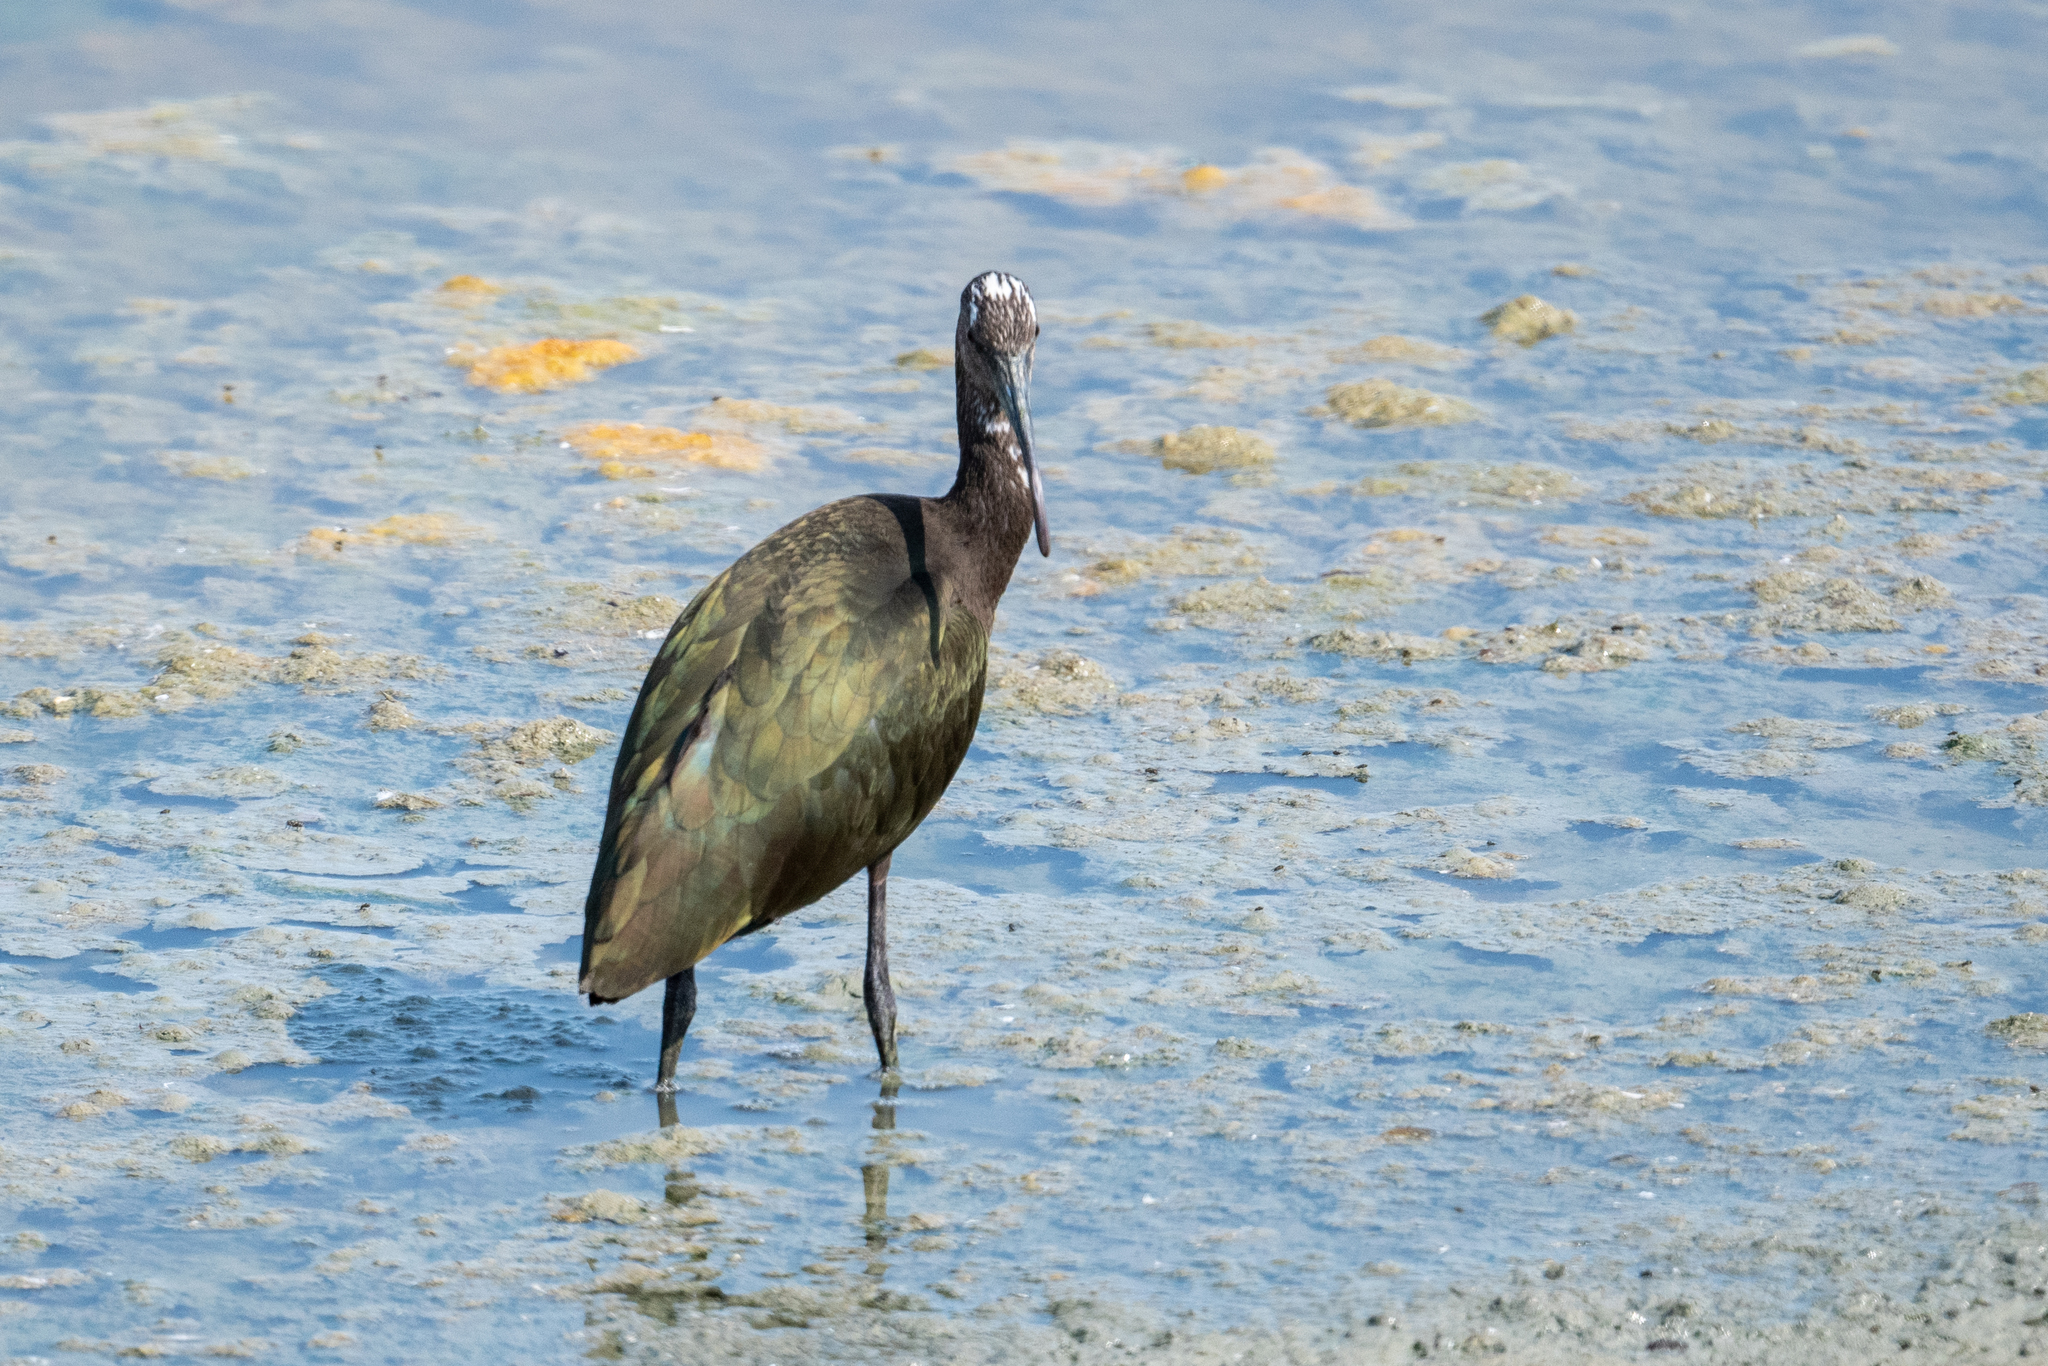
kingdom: Animalia
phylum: Chordata
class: Aves
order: Pelecaniformes
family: Threskiornithidae
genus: Plegadis
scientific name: Plegadis chihi
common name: White-faced ibis
